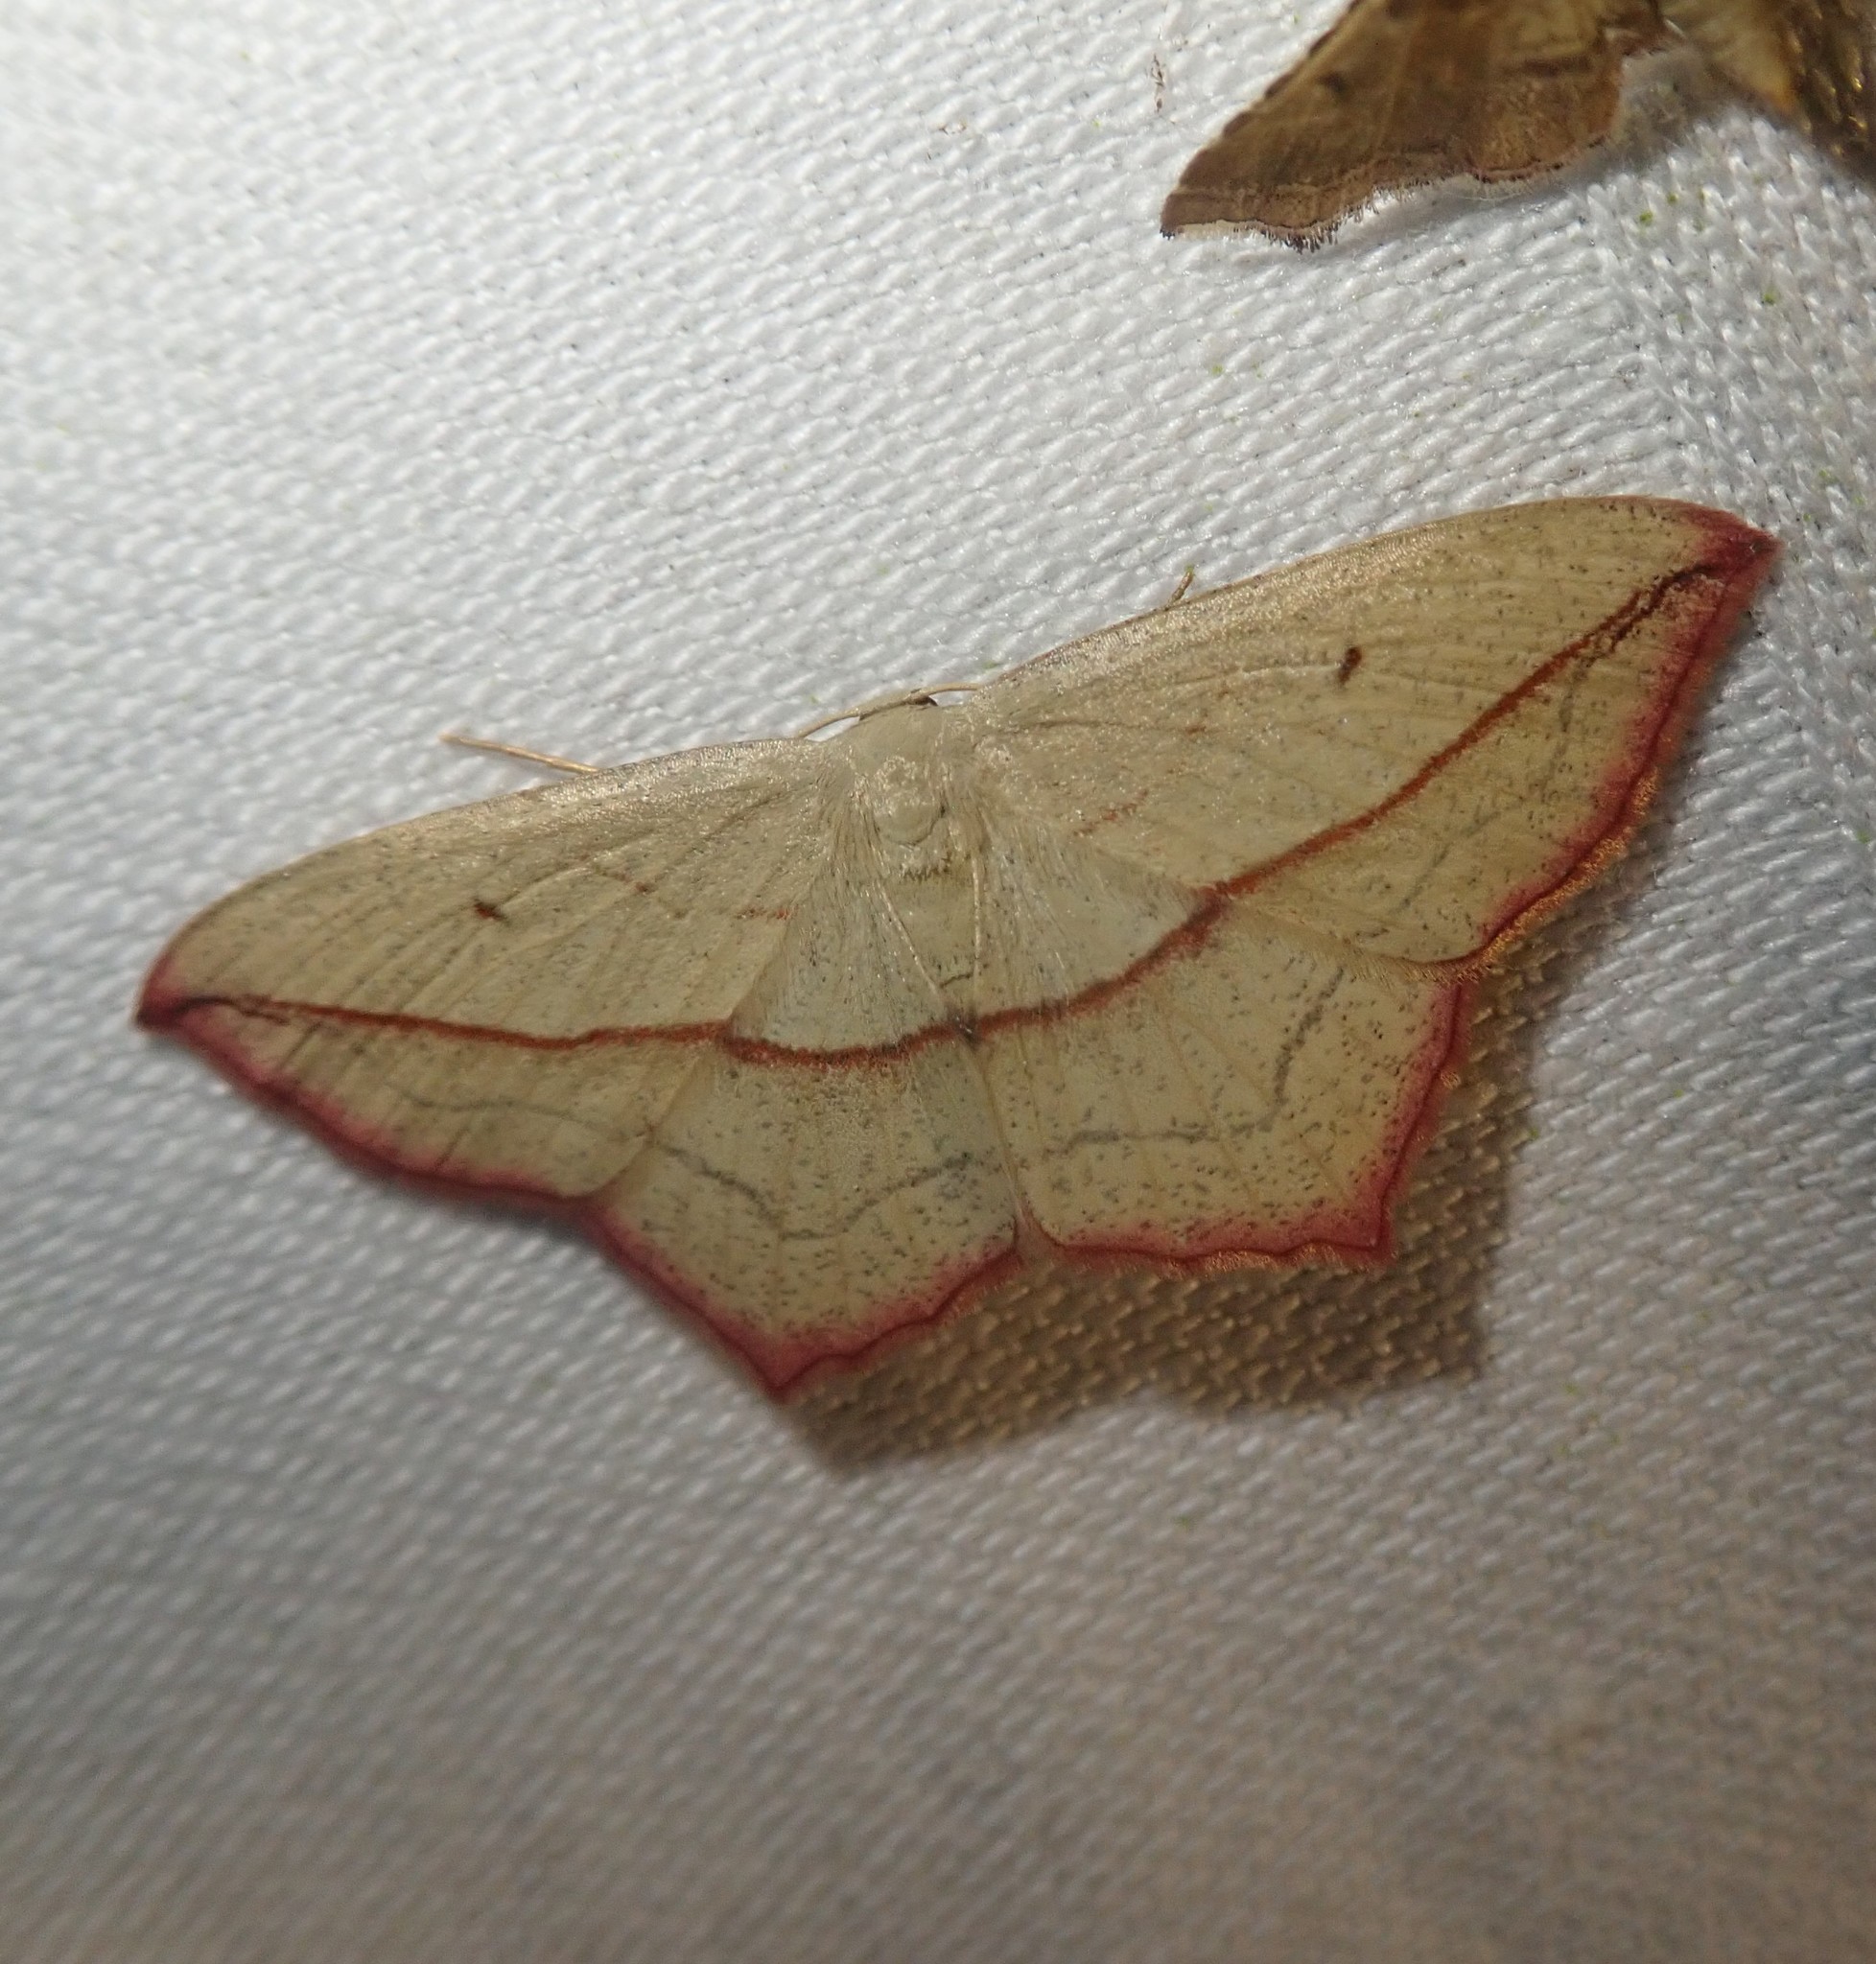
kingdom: Animalia
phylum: Arthropoda
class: Insecta
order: Lepidoptera
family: Geometridae
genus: Timandra
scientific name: Timandra comae
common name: Blood-vein
